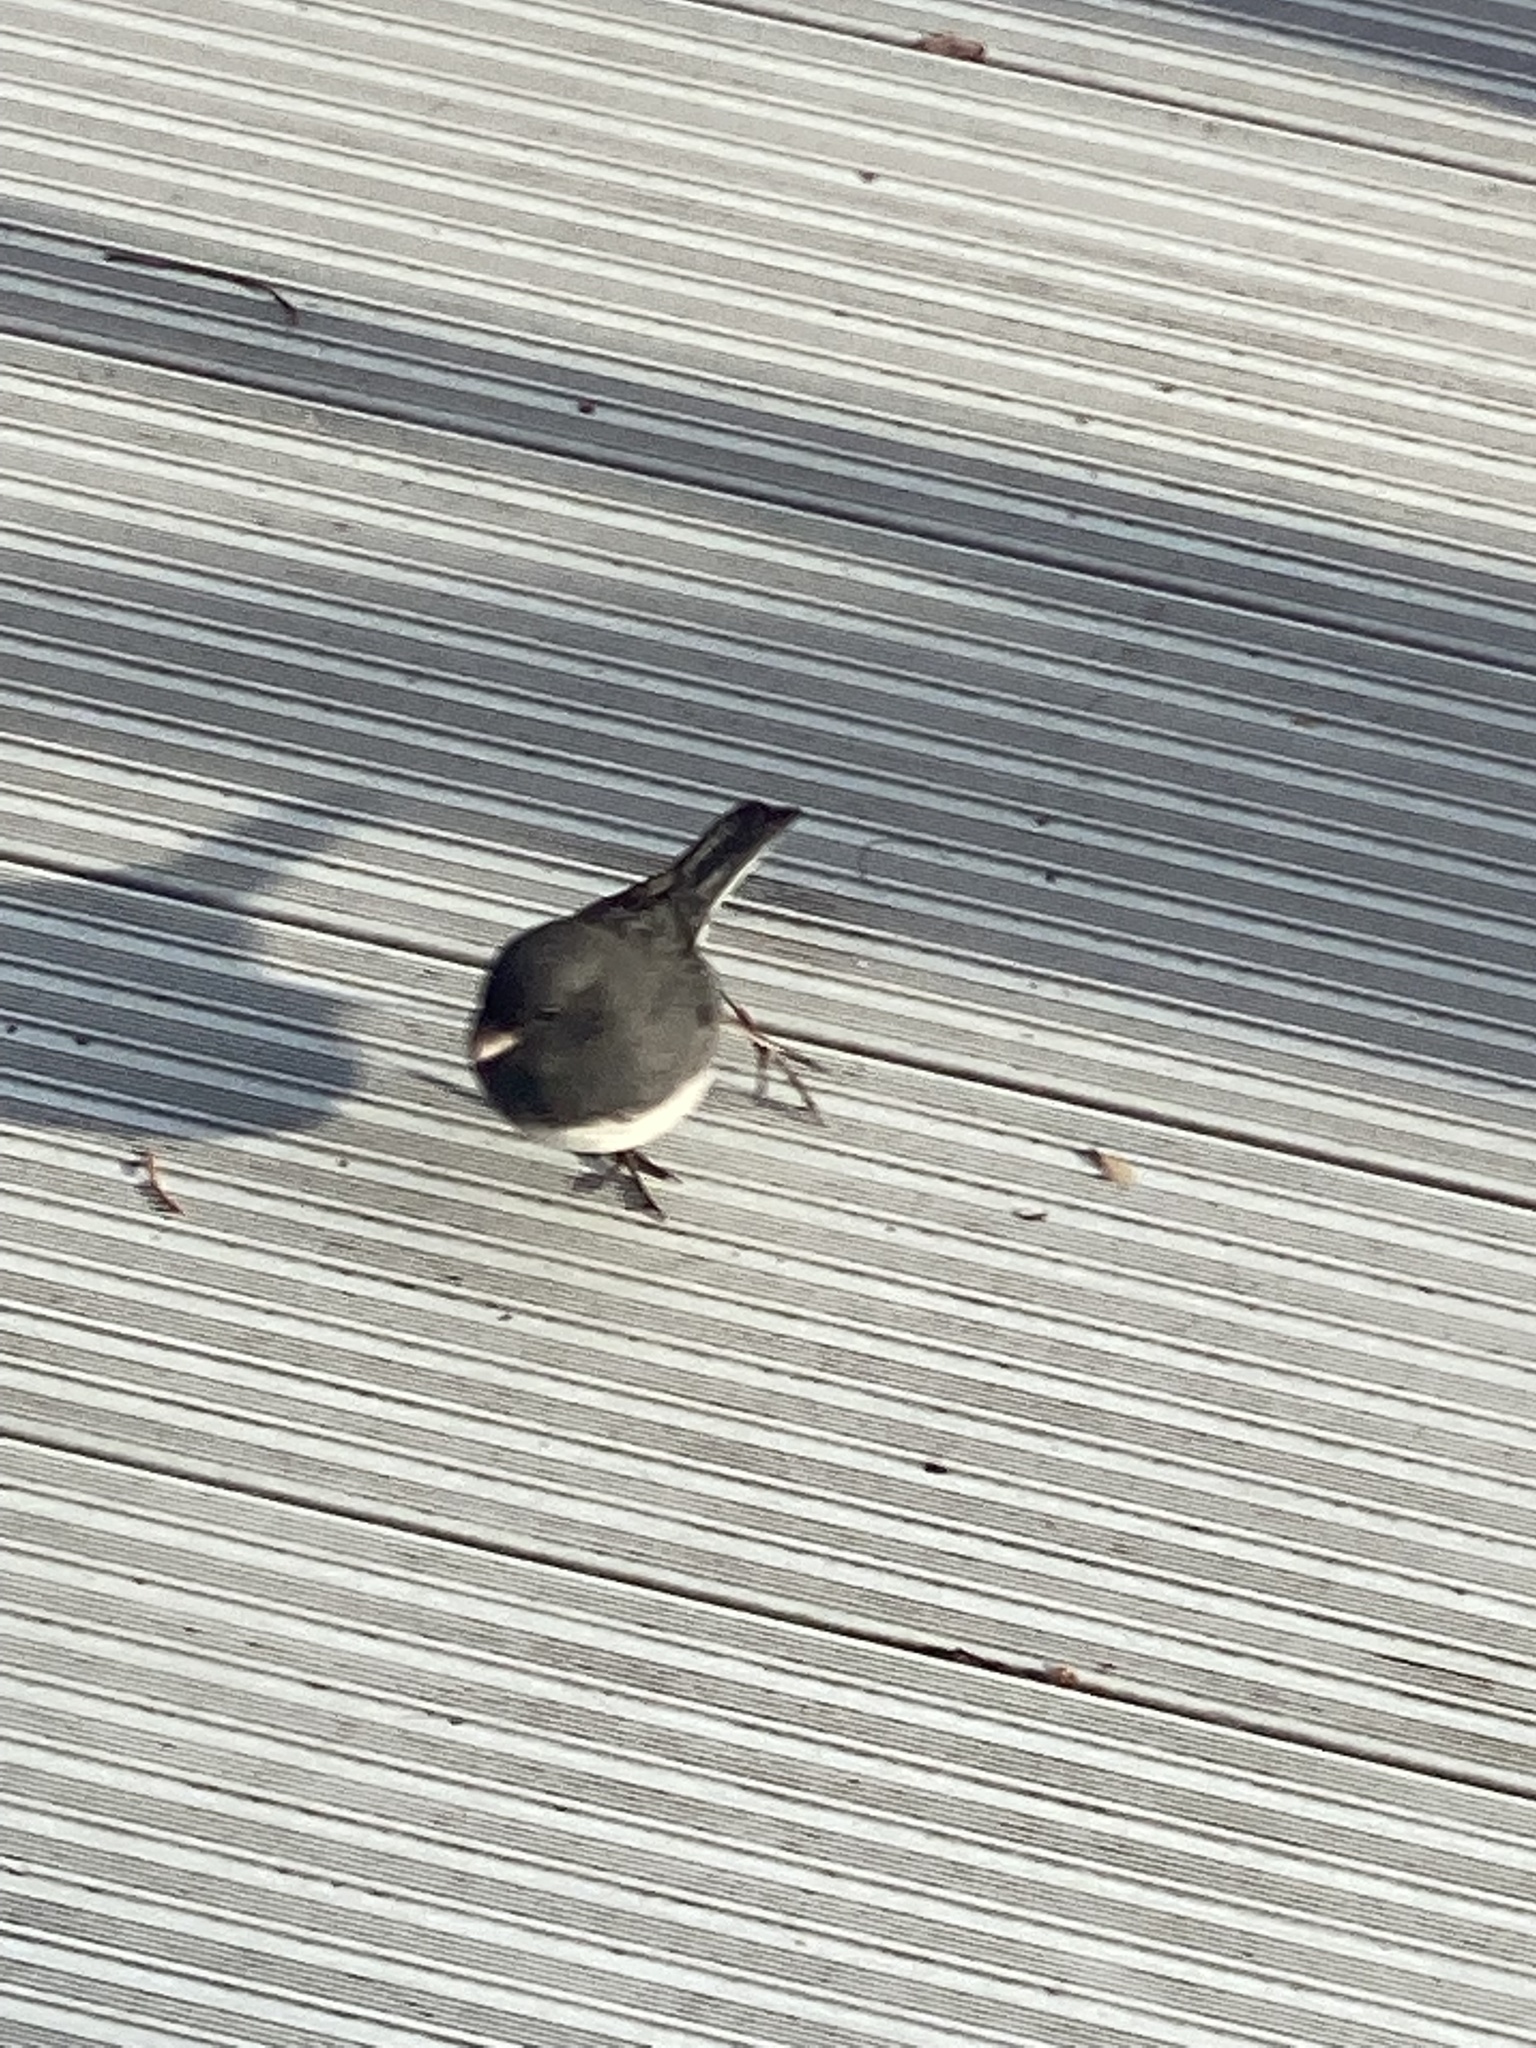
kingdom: Animalia
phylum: Chordata
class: Aves
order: Passeriformes
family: Passerellidae
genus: Junco
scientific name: Junco hyemalis
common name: Dark-eyed junco
